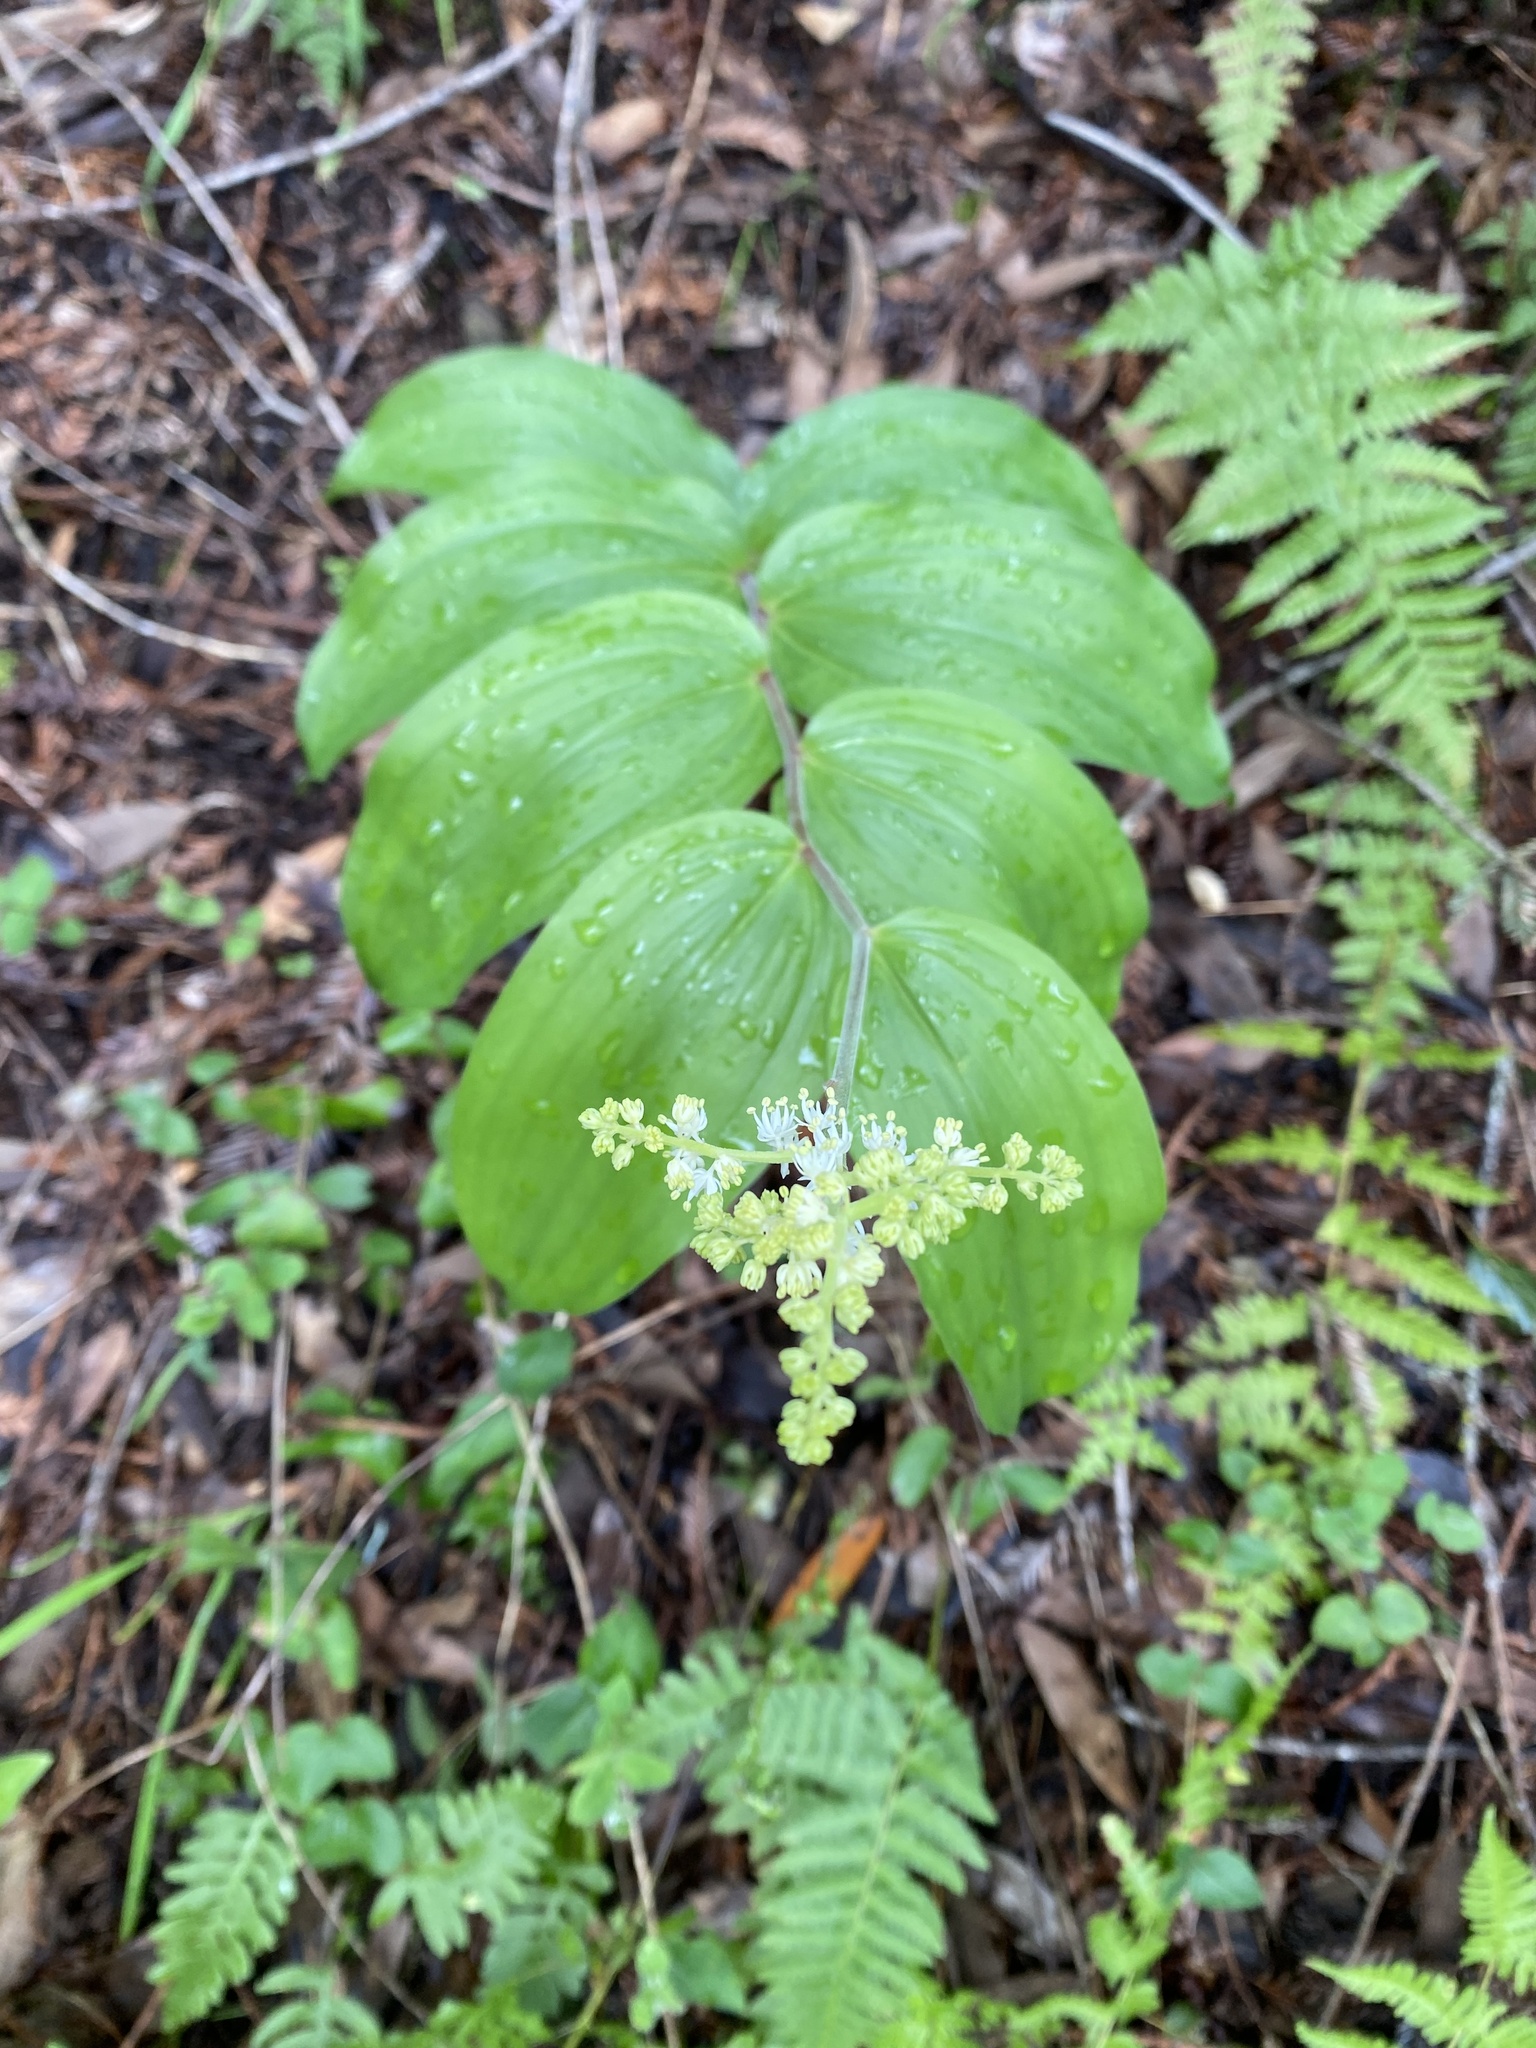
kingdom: Plantae
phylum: Tracheophyta
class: Liliopsida
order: Asparagales
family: Asparagaceae
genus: Maianthemum
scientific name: Maianthemum racemosum
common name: False spikenard
